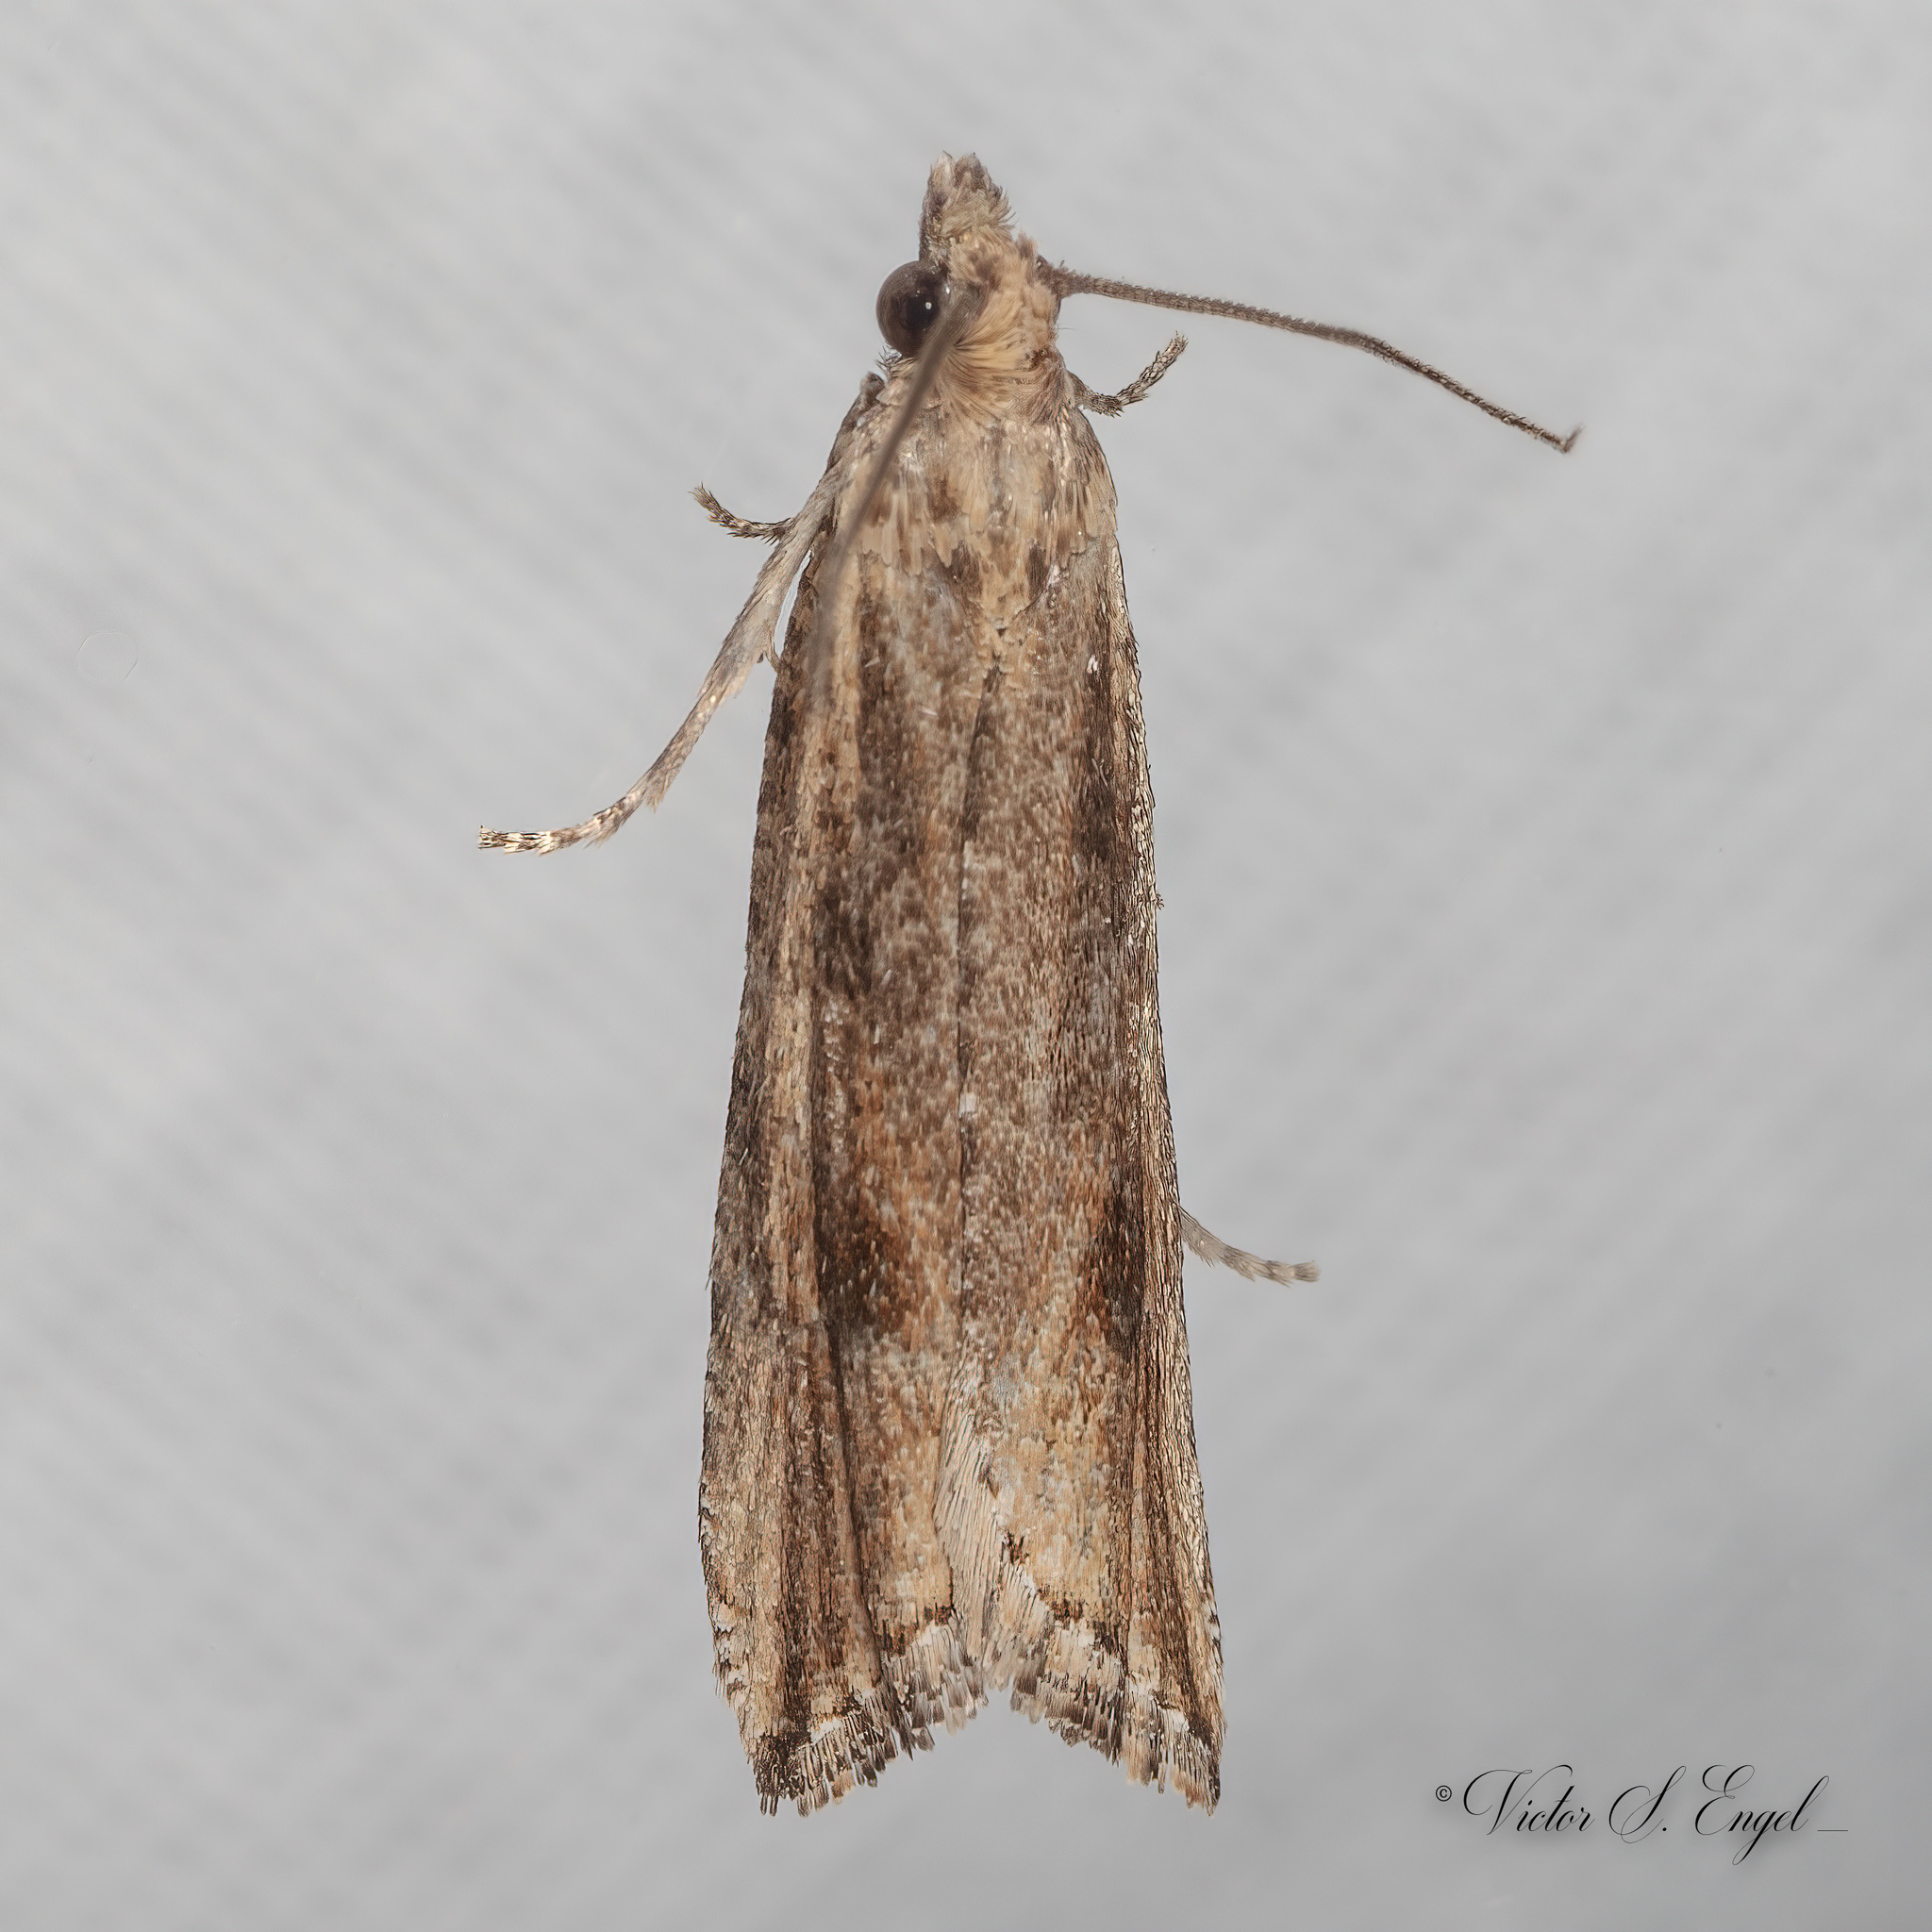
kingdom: Animalia
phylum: Arthropoda
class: Insecta
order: Lepidoptera
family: Tortricidae
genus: Bactra
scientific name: Bactra verutana
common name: Javelin moth
